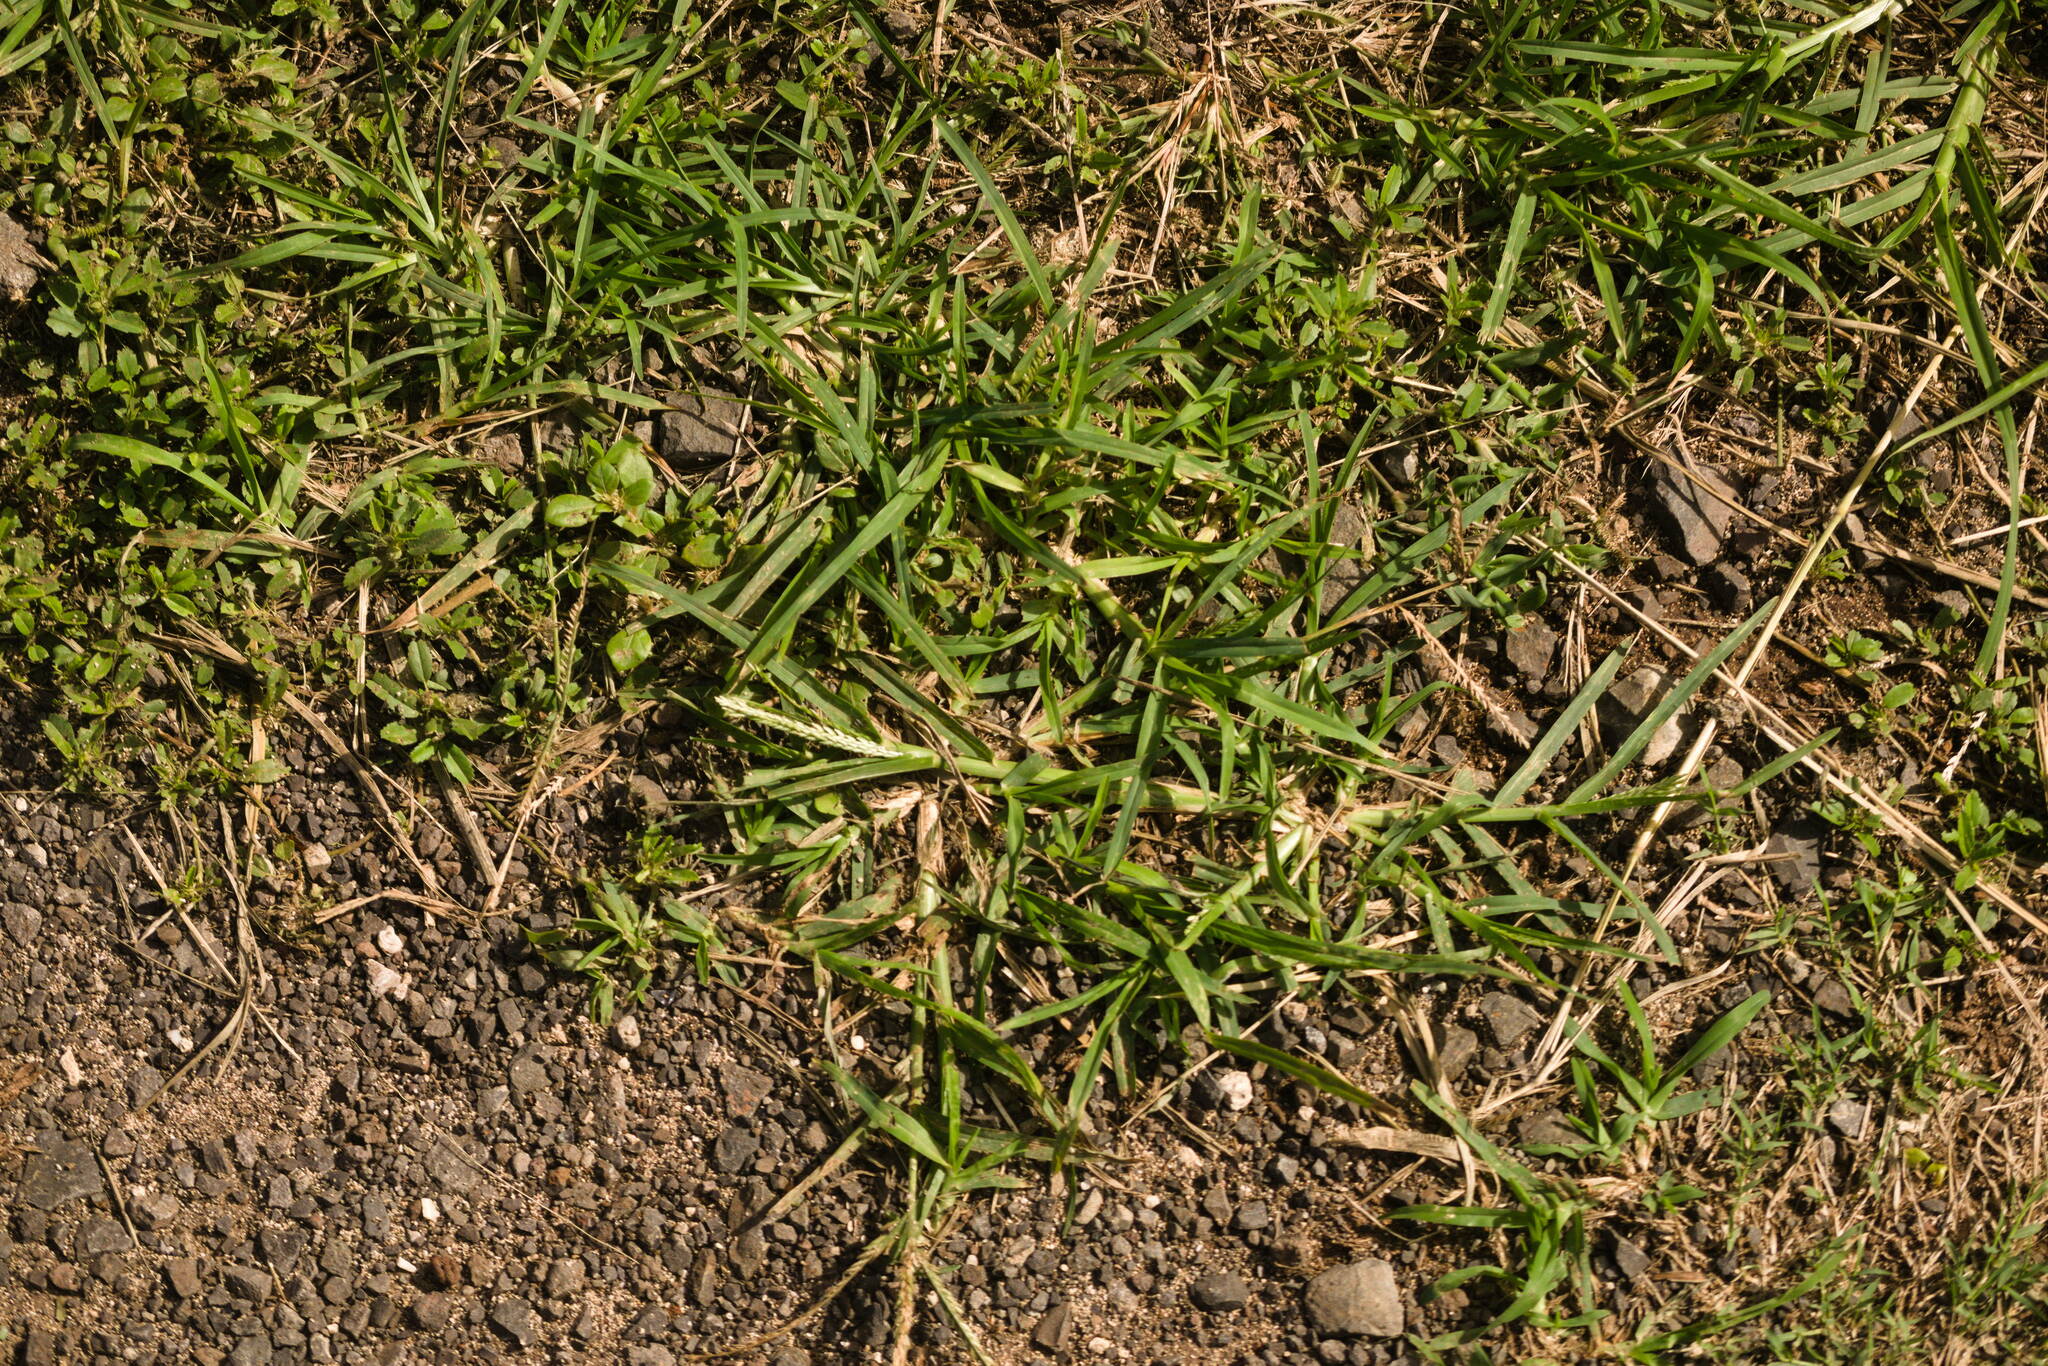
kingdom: Plantae
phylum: Tracheophyta
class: Liliopsida
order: Poales
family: Poaceae
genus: Eleusine
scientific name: Eleusine indica
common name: Yard-grass
